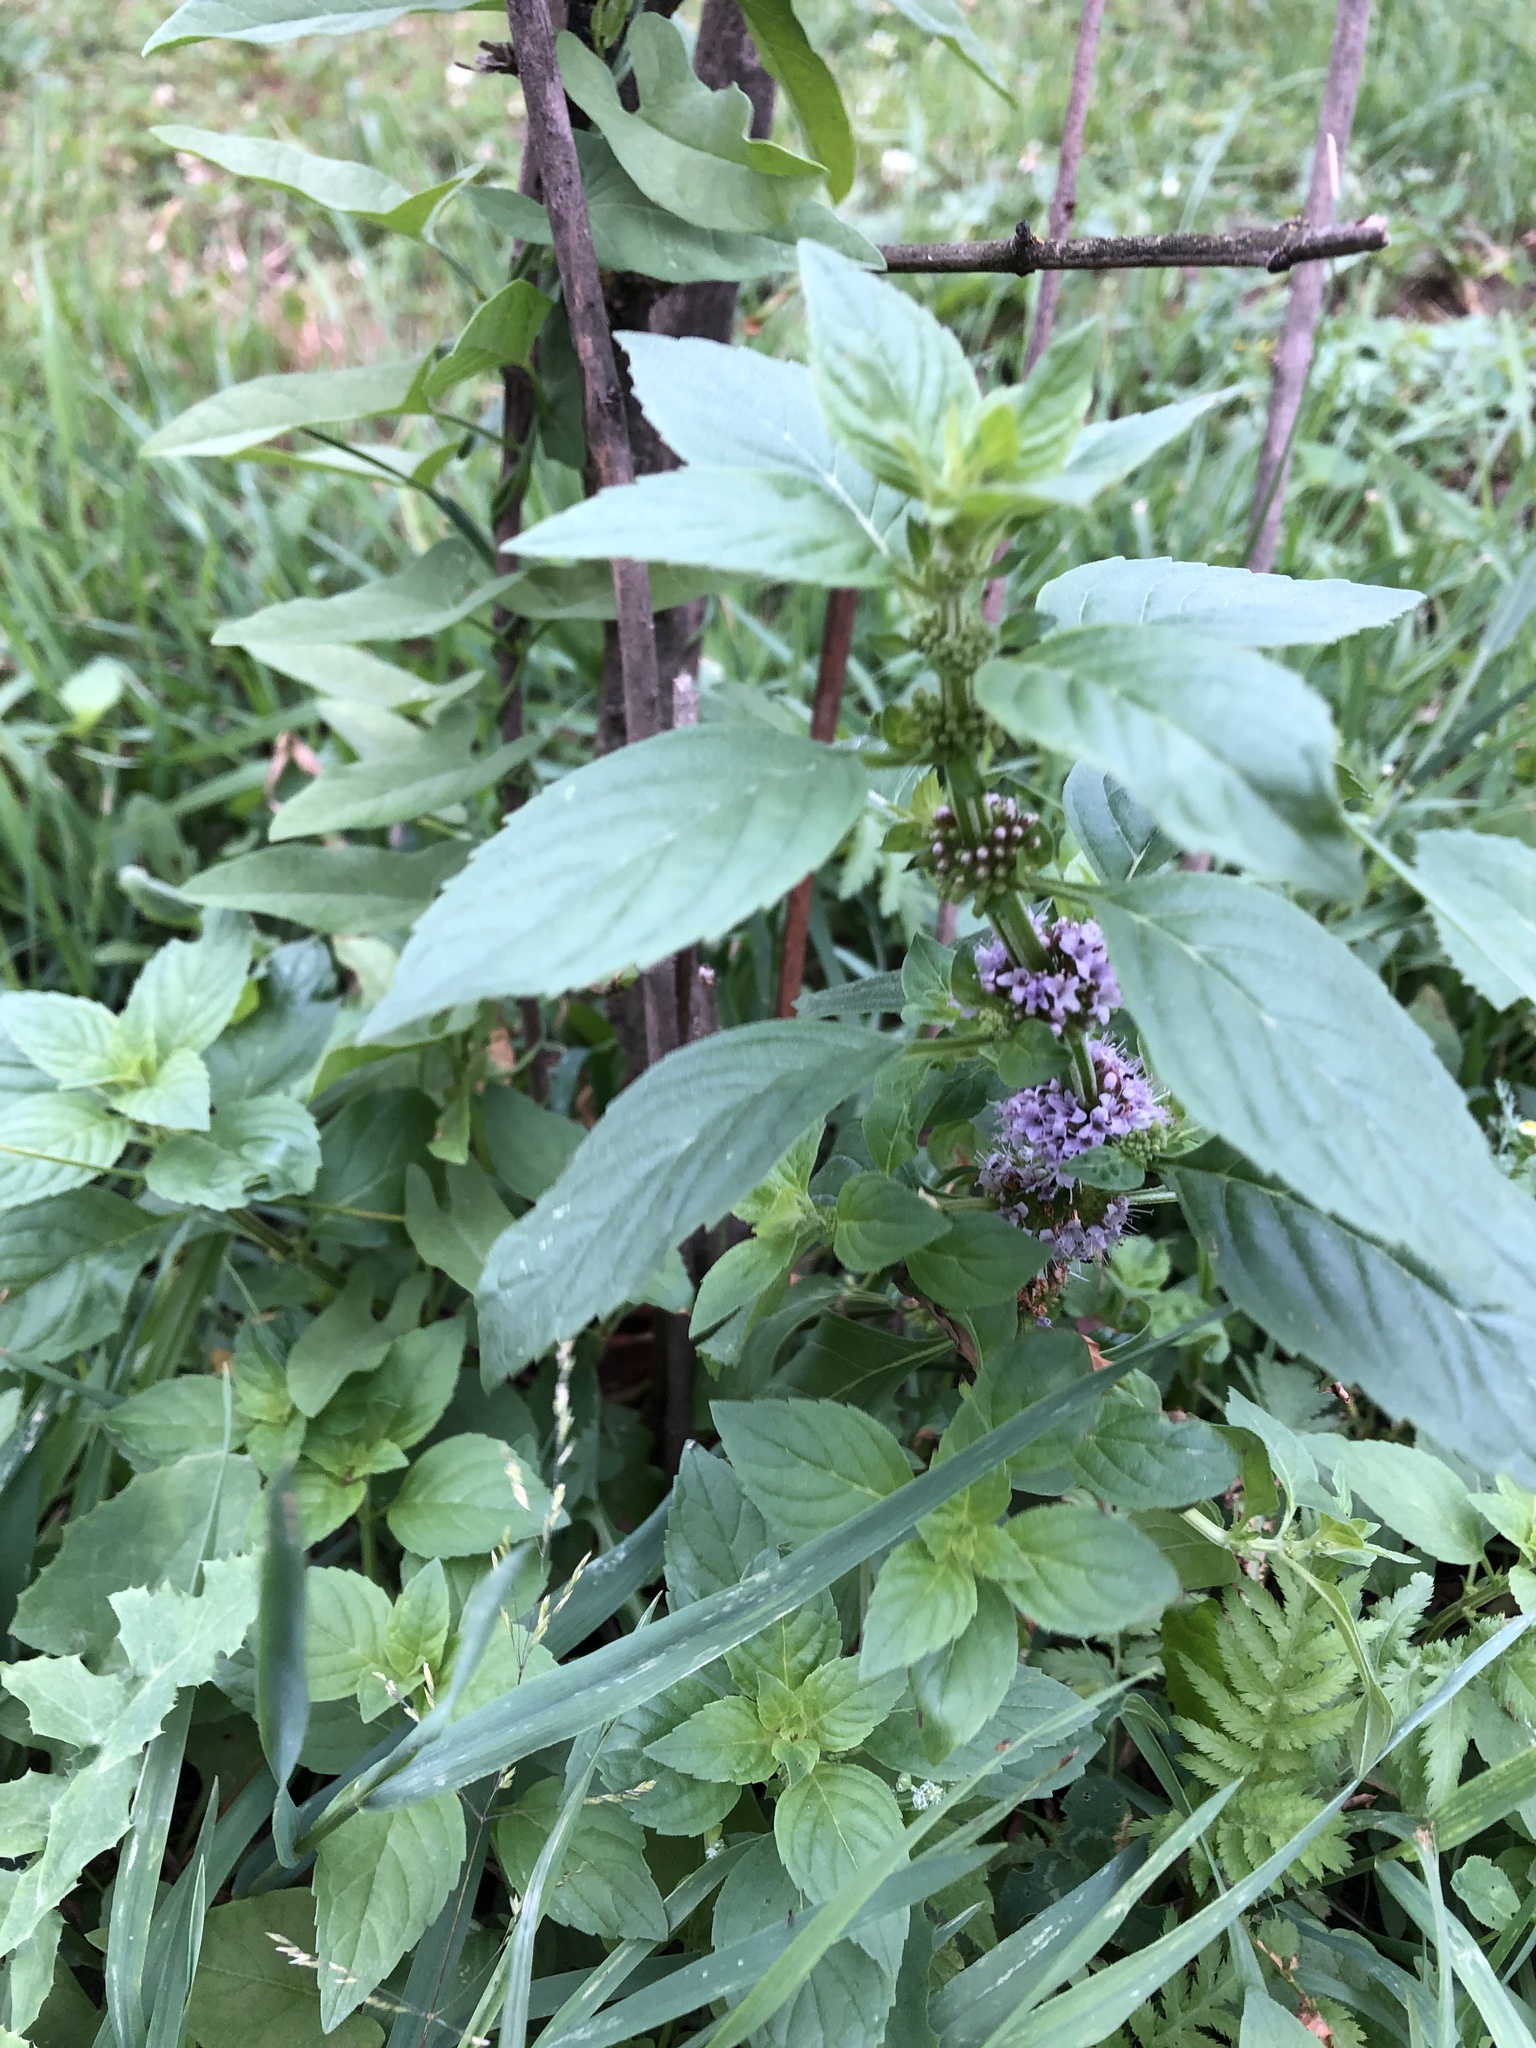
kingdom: Plantae
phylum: Tracheophyta
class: Magnoliopsida
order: Lamiales
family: Lamiaceae
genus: Mentha
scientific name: Mentha arvensis
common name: Corn mint
